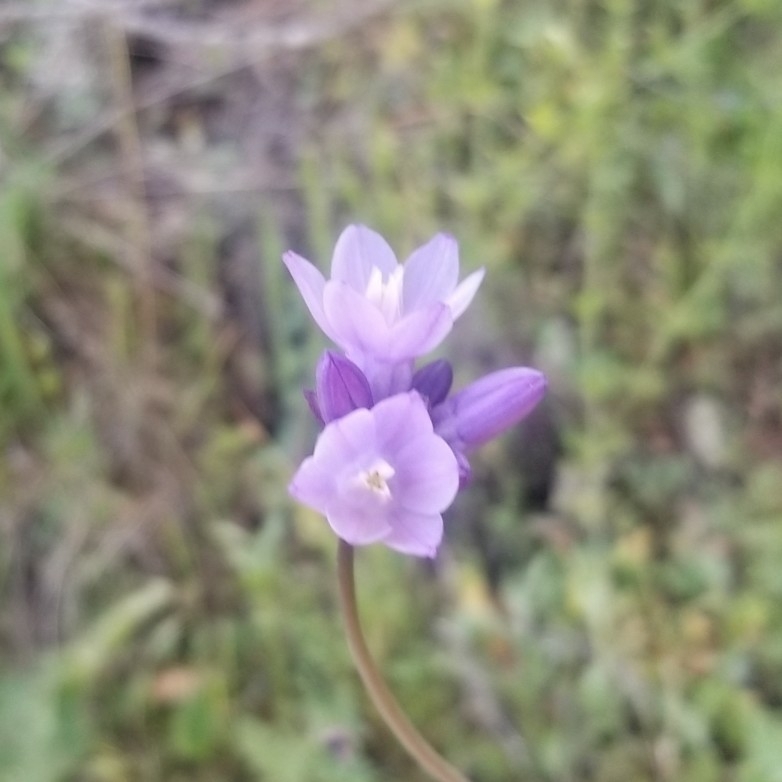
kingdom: Plantae
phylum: Tracheophyta
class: Liliopsida
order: Asparagales
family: Asparagaceae
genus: Dipterostemon
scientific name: Dipterostemon capitatus
